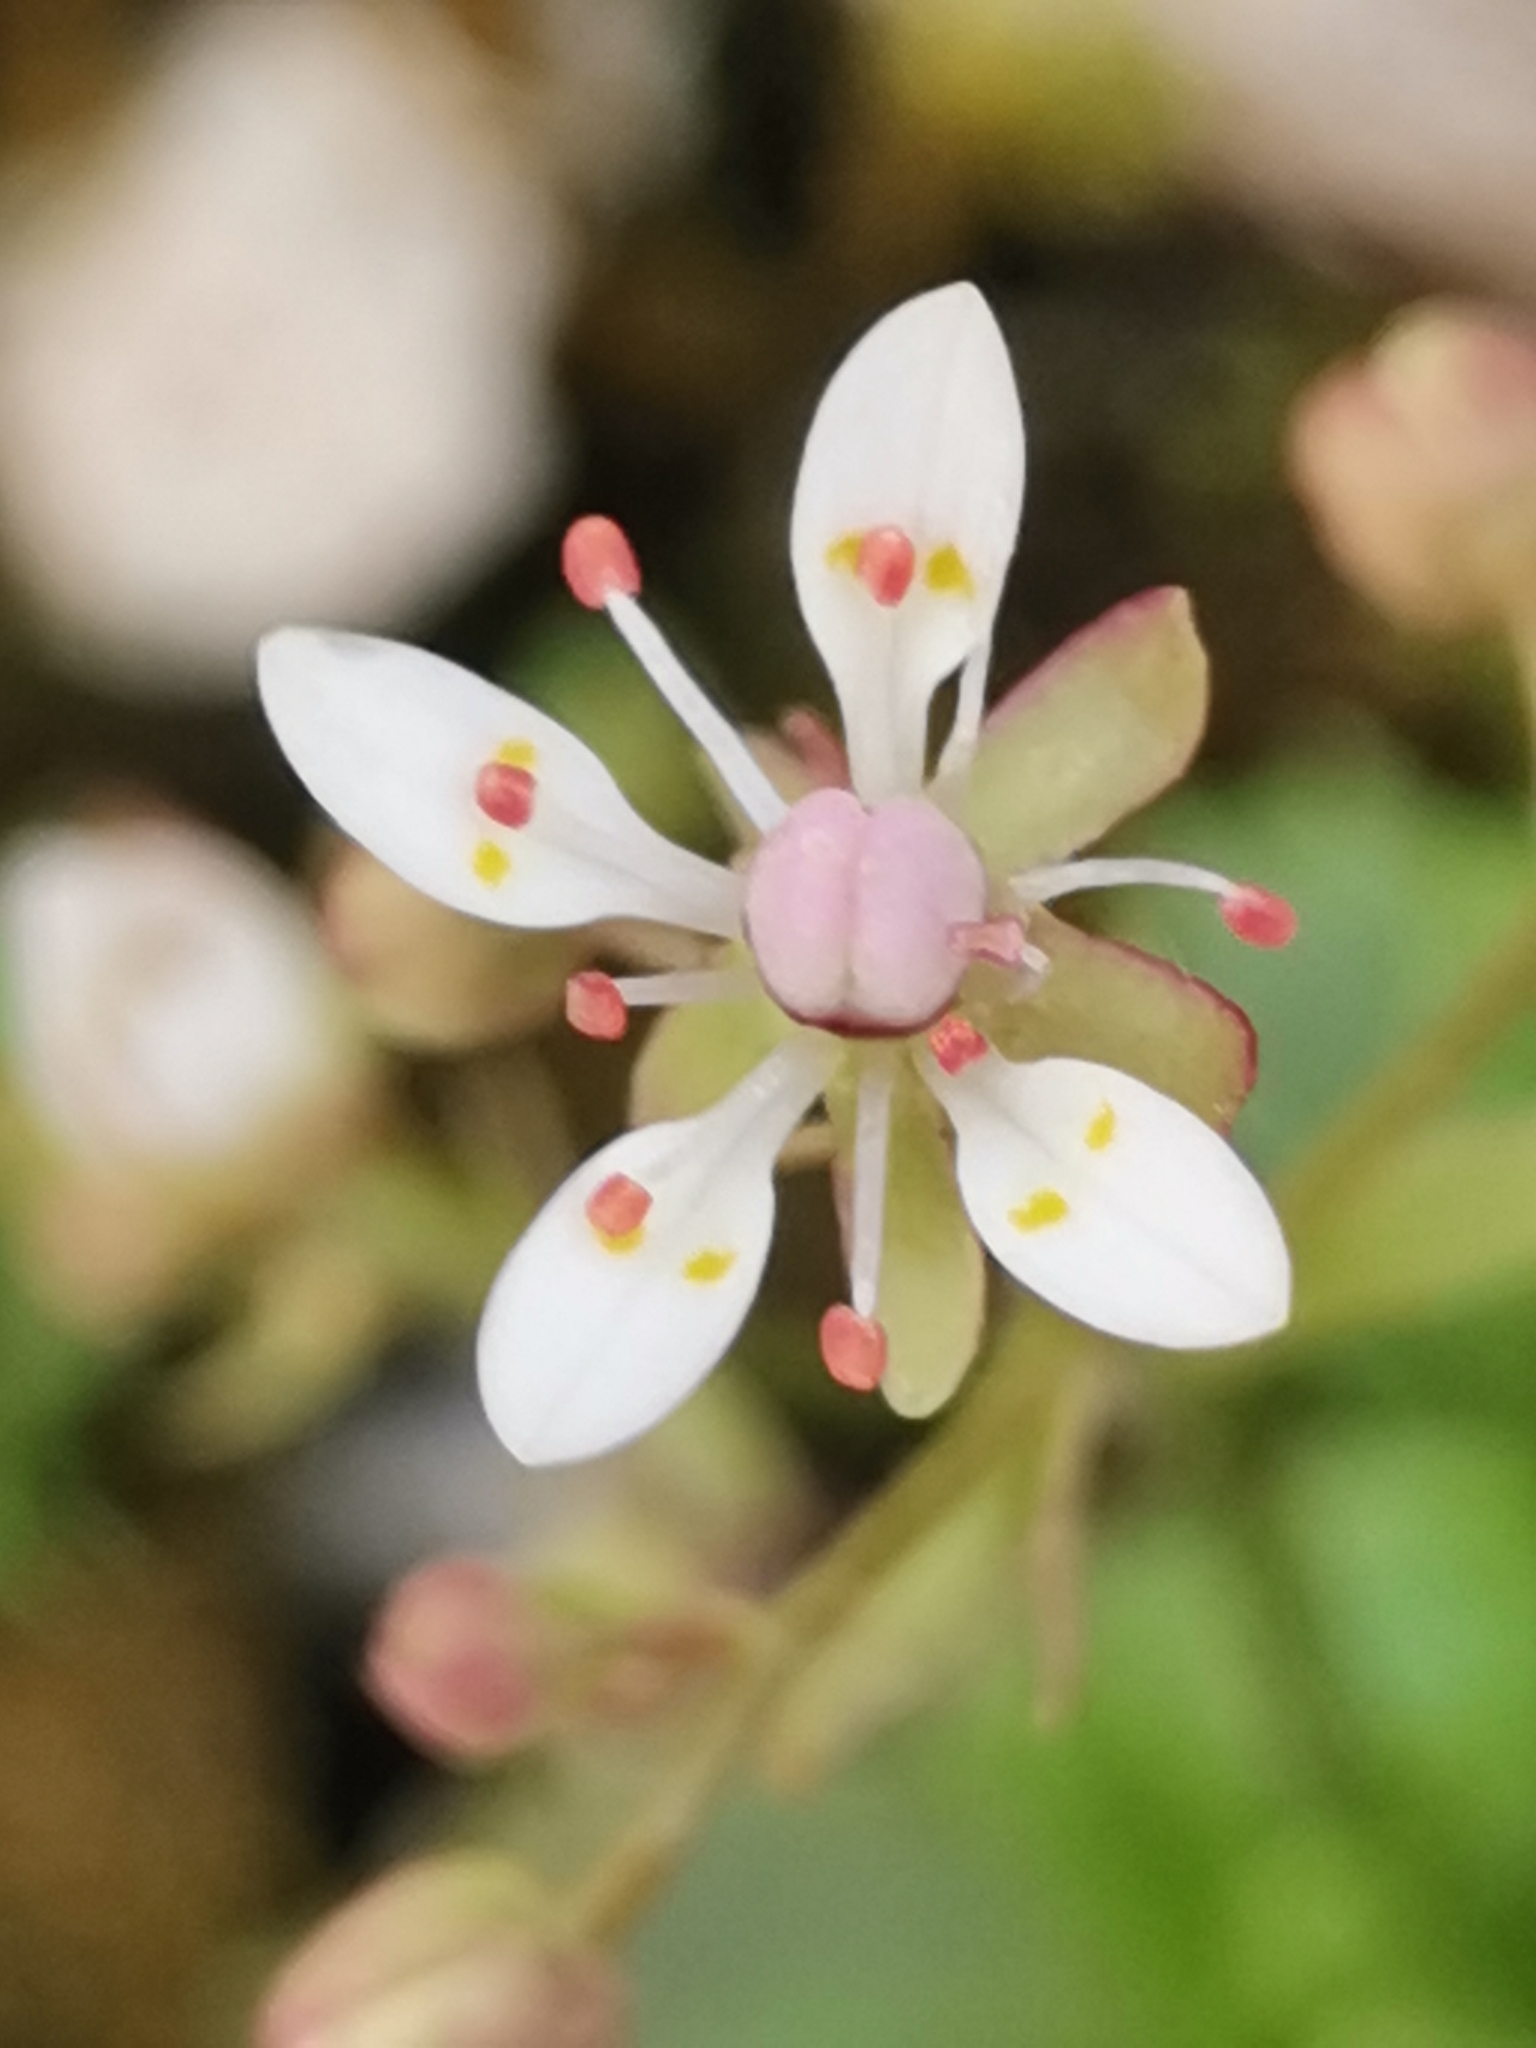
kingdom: Plantae
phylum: Tracheophyta
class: Magnoliopsida
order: Saxifragales
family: Saxifragaceae
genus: Micranthes
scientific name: Micranthes stellaris
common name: Starry saxifrage
